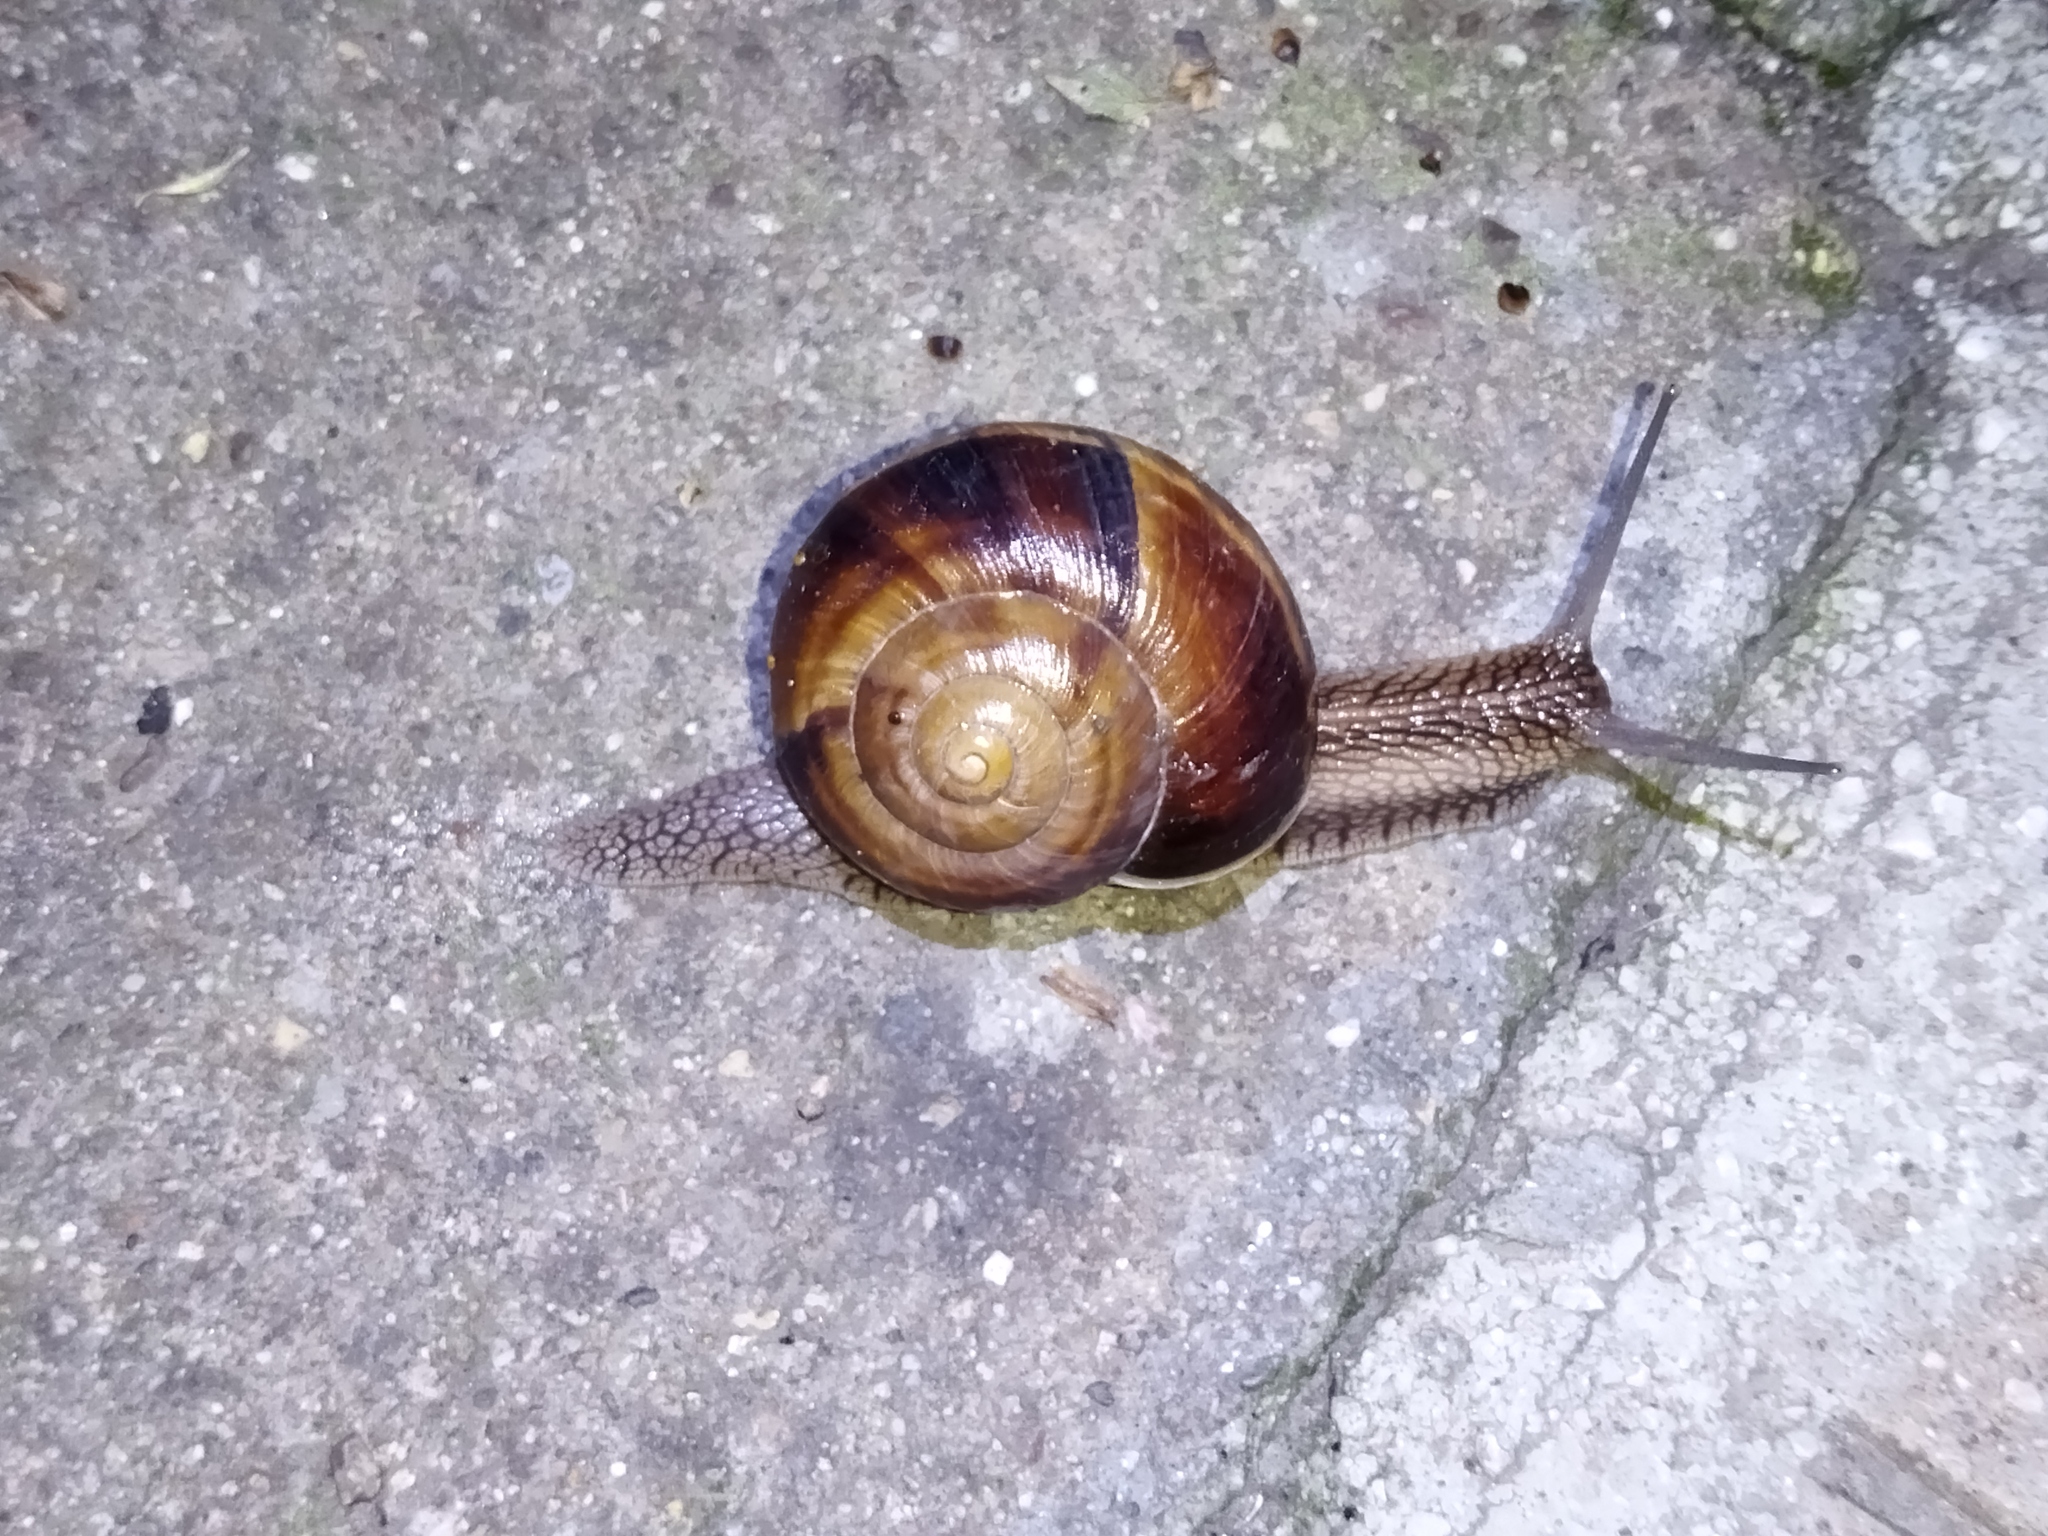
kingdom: Animalia
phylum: Mollusca
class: Gastropoda
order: Stylommatophora
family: Helicidae
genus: Helix
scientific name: Helix lucorum
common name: Turkish snail
